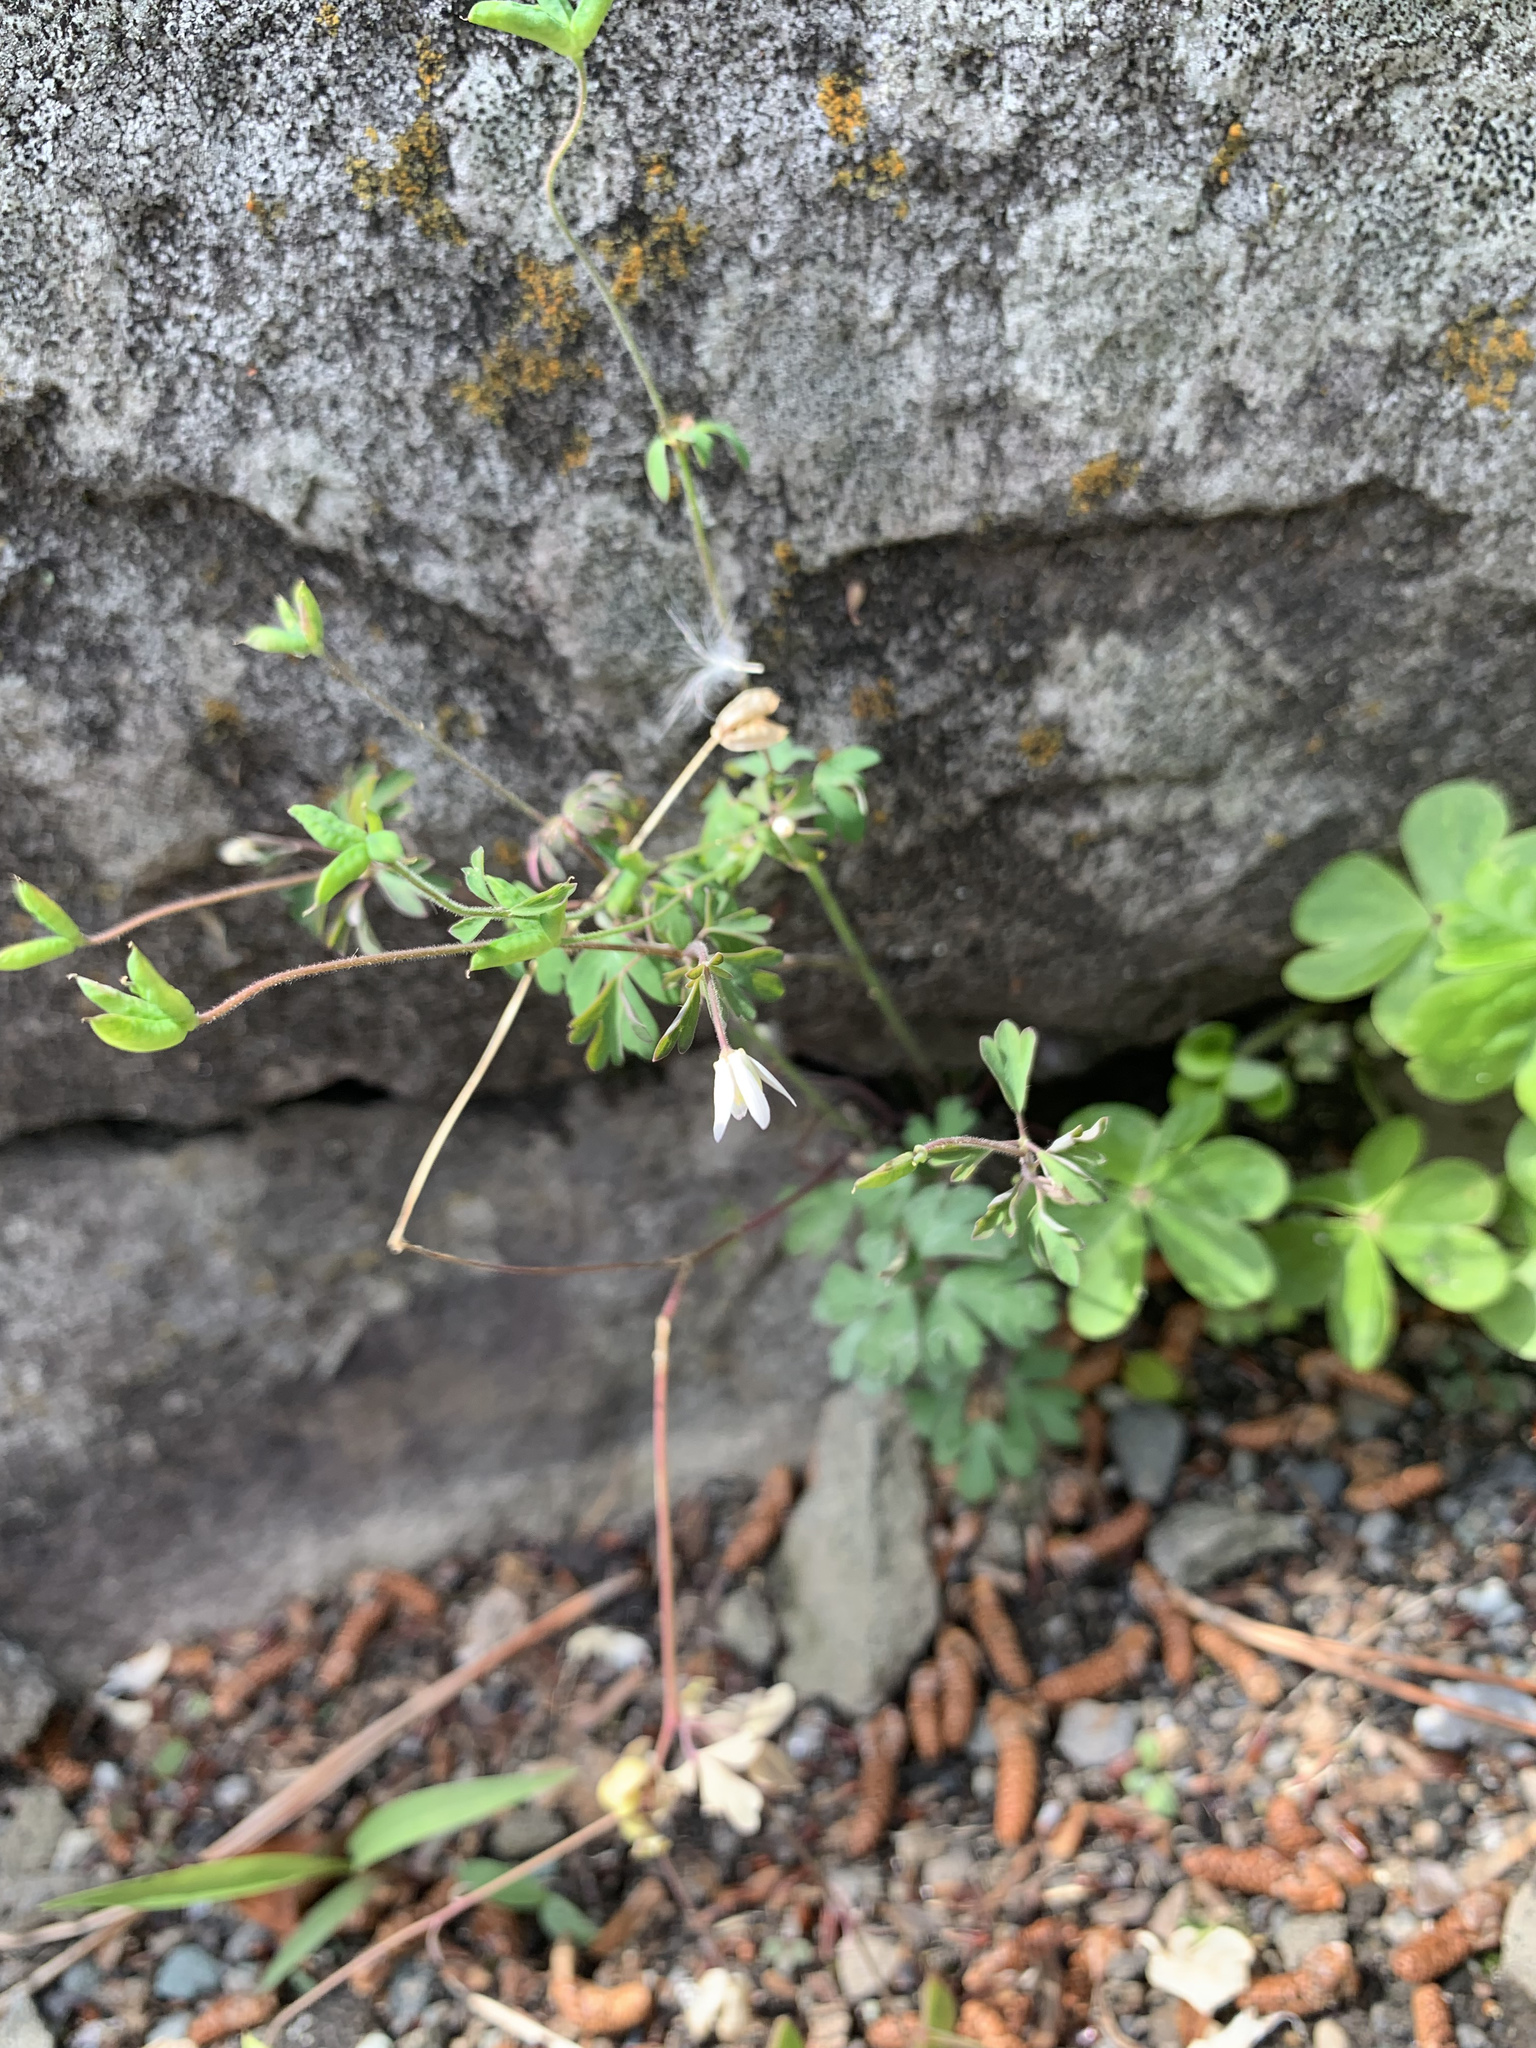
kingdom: Plantae
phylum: Tracheophyta
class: Magnoliopsida
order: Ranunculales
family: Ranunculaceae
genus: Semiaquilegia
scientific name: Semiaquilegia adoxoides
